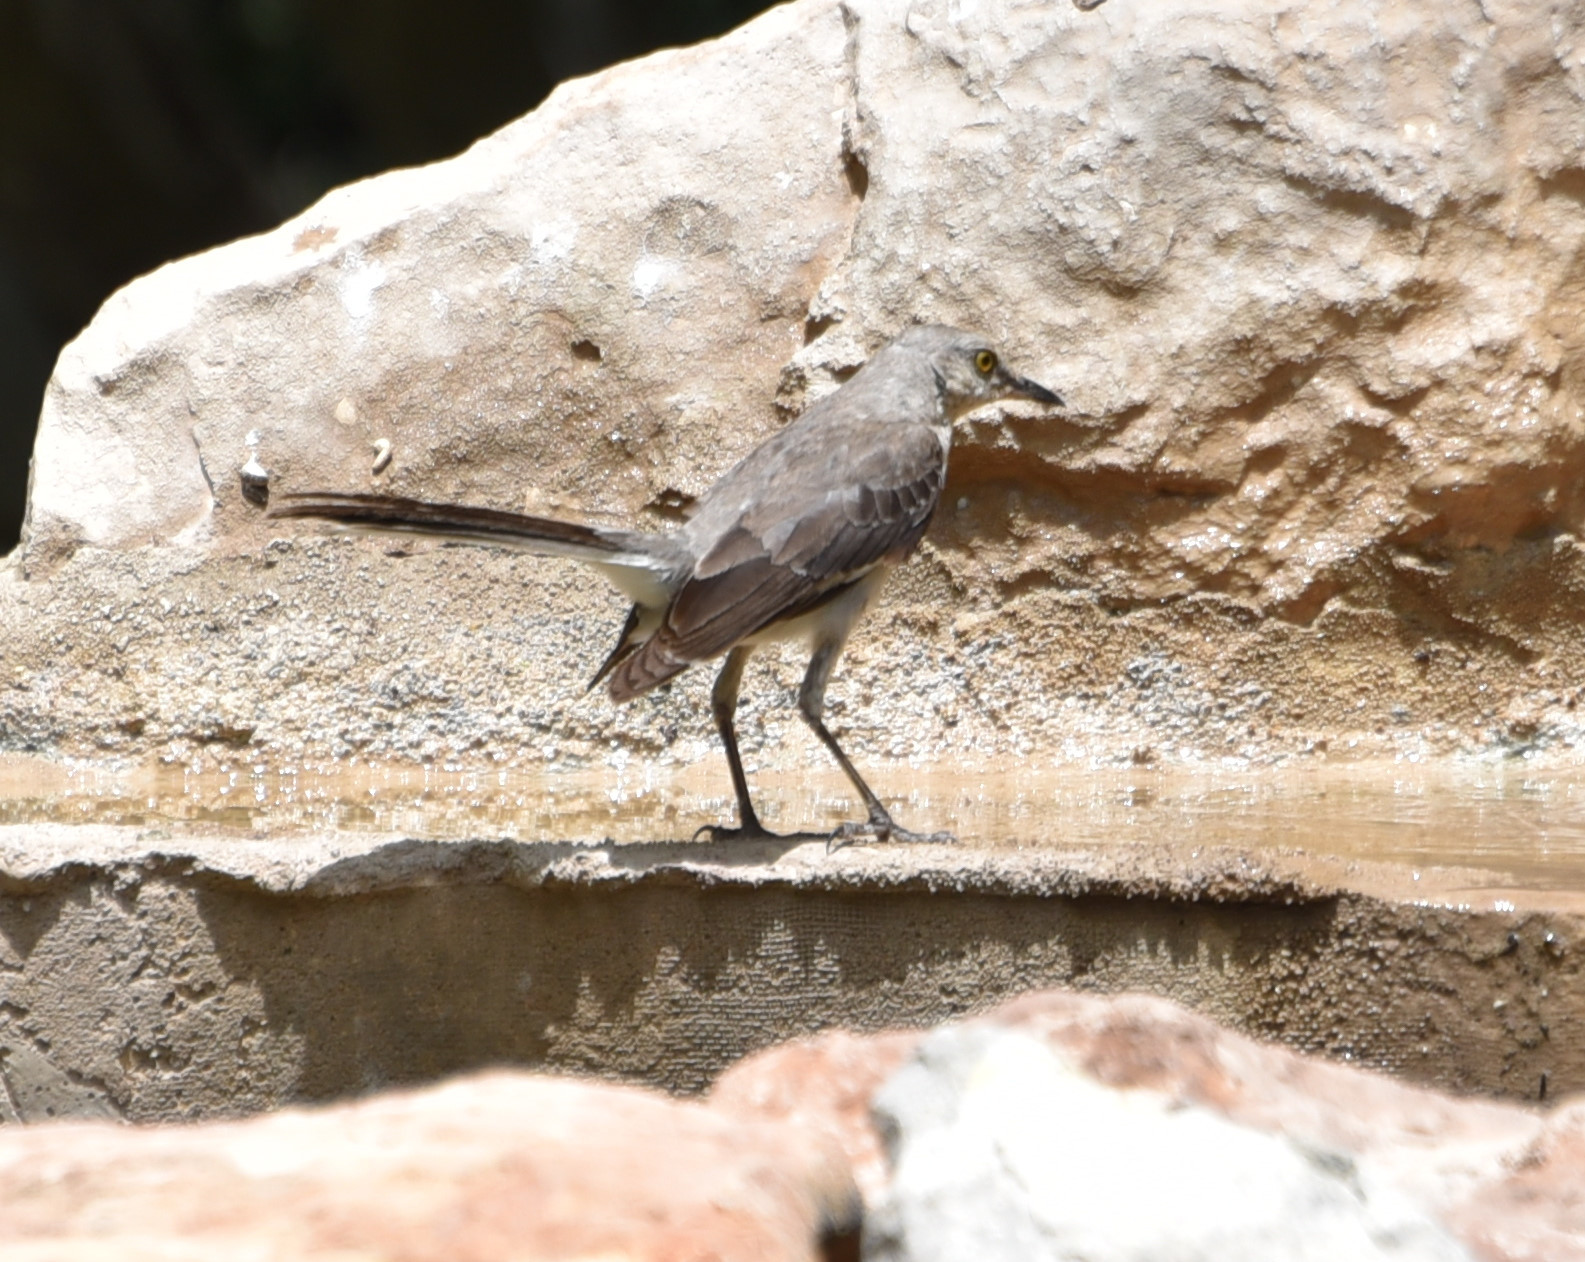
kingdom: Animalia
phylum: Chordata
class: Aves
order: Passeriformes
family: Mimidae
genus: Mimus
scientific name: Mimus polyglottos
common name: Northern mockingbird
